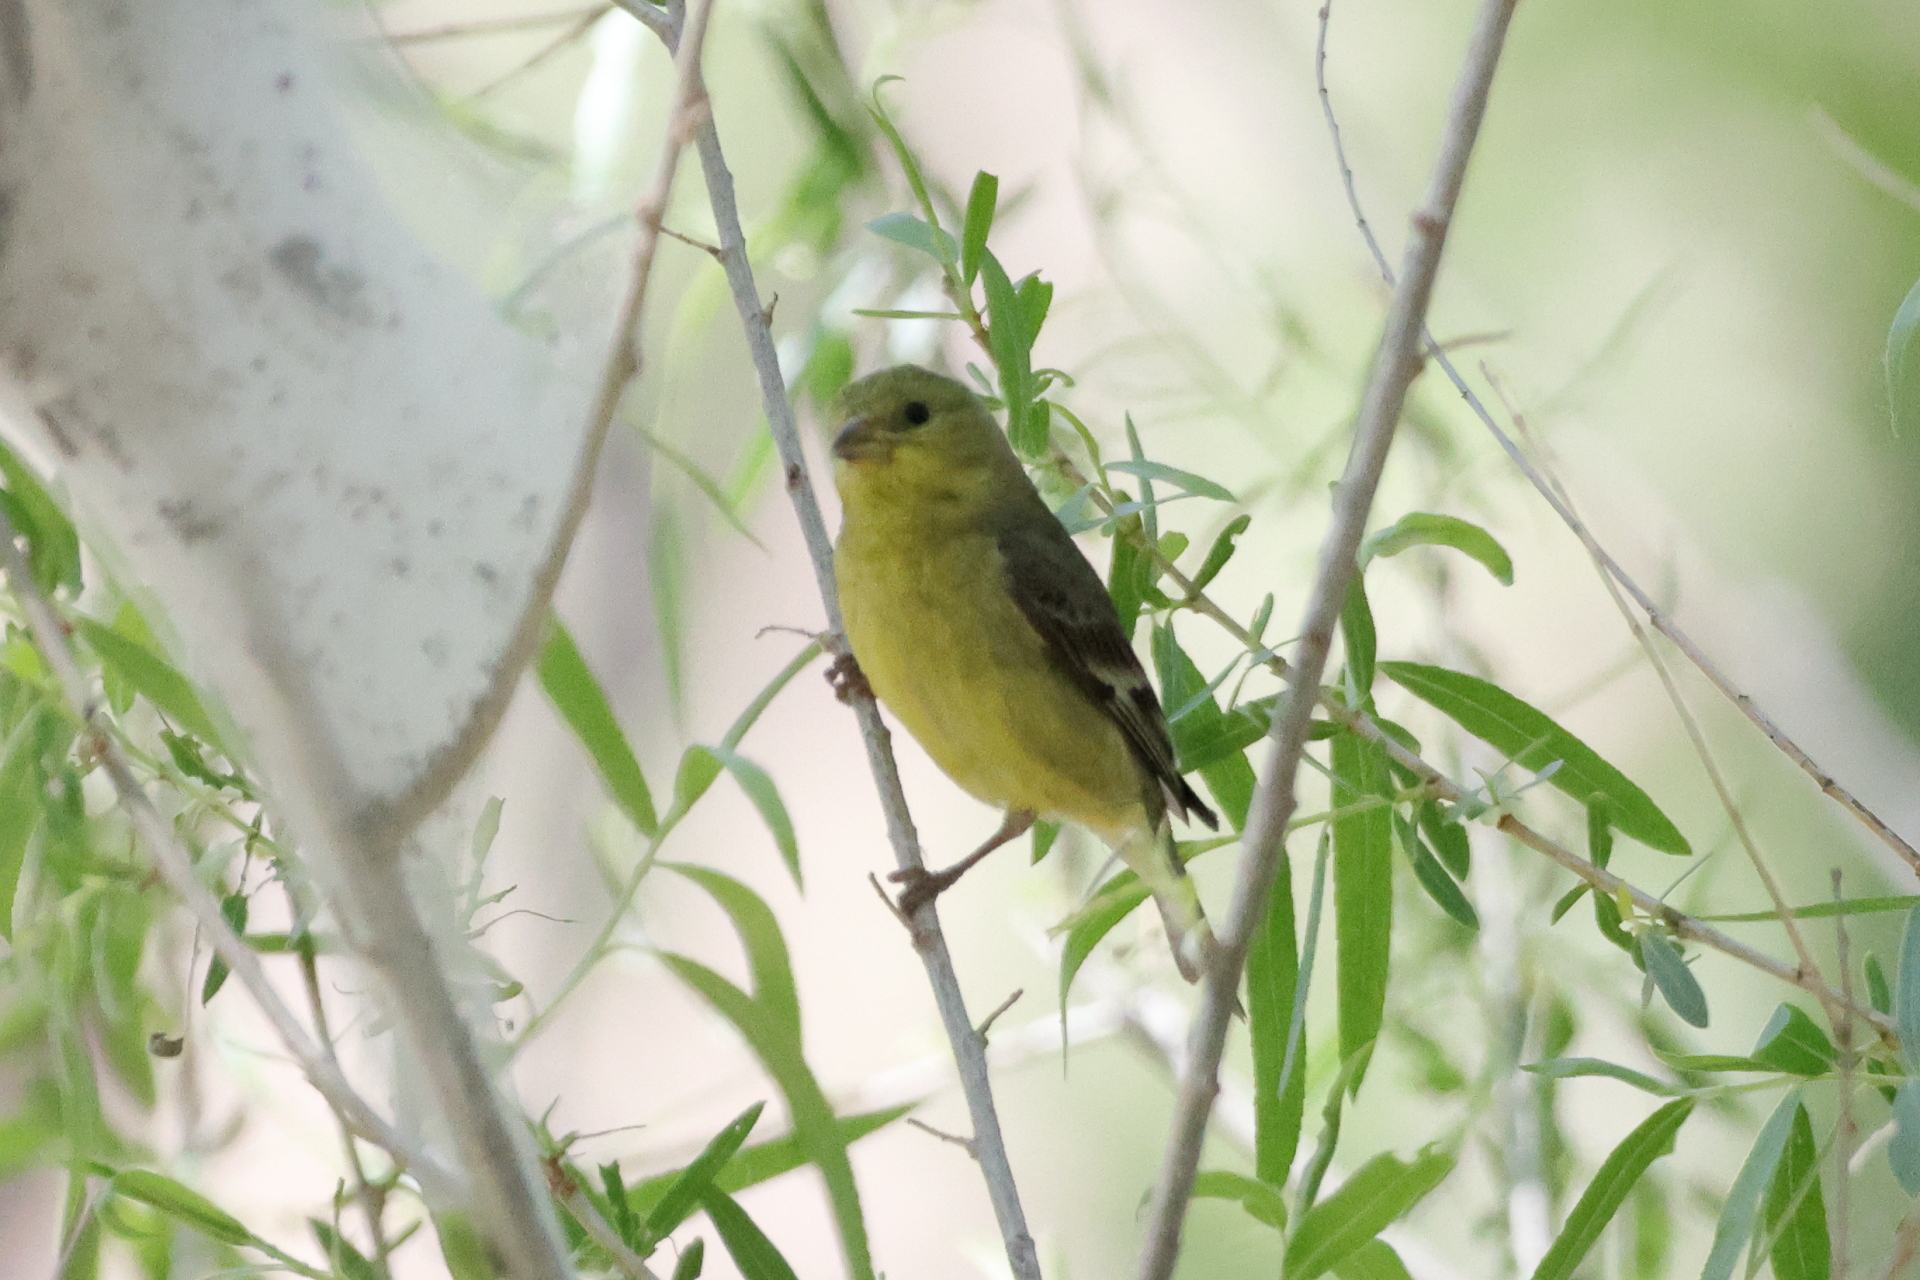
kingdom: Animalia
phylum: Chordata
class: Aves
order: Passeriformes
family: Fringillidae
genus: Spinus
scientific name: Spinus psaltria
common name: Lesser goldfinch
